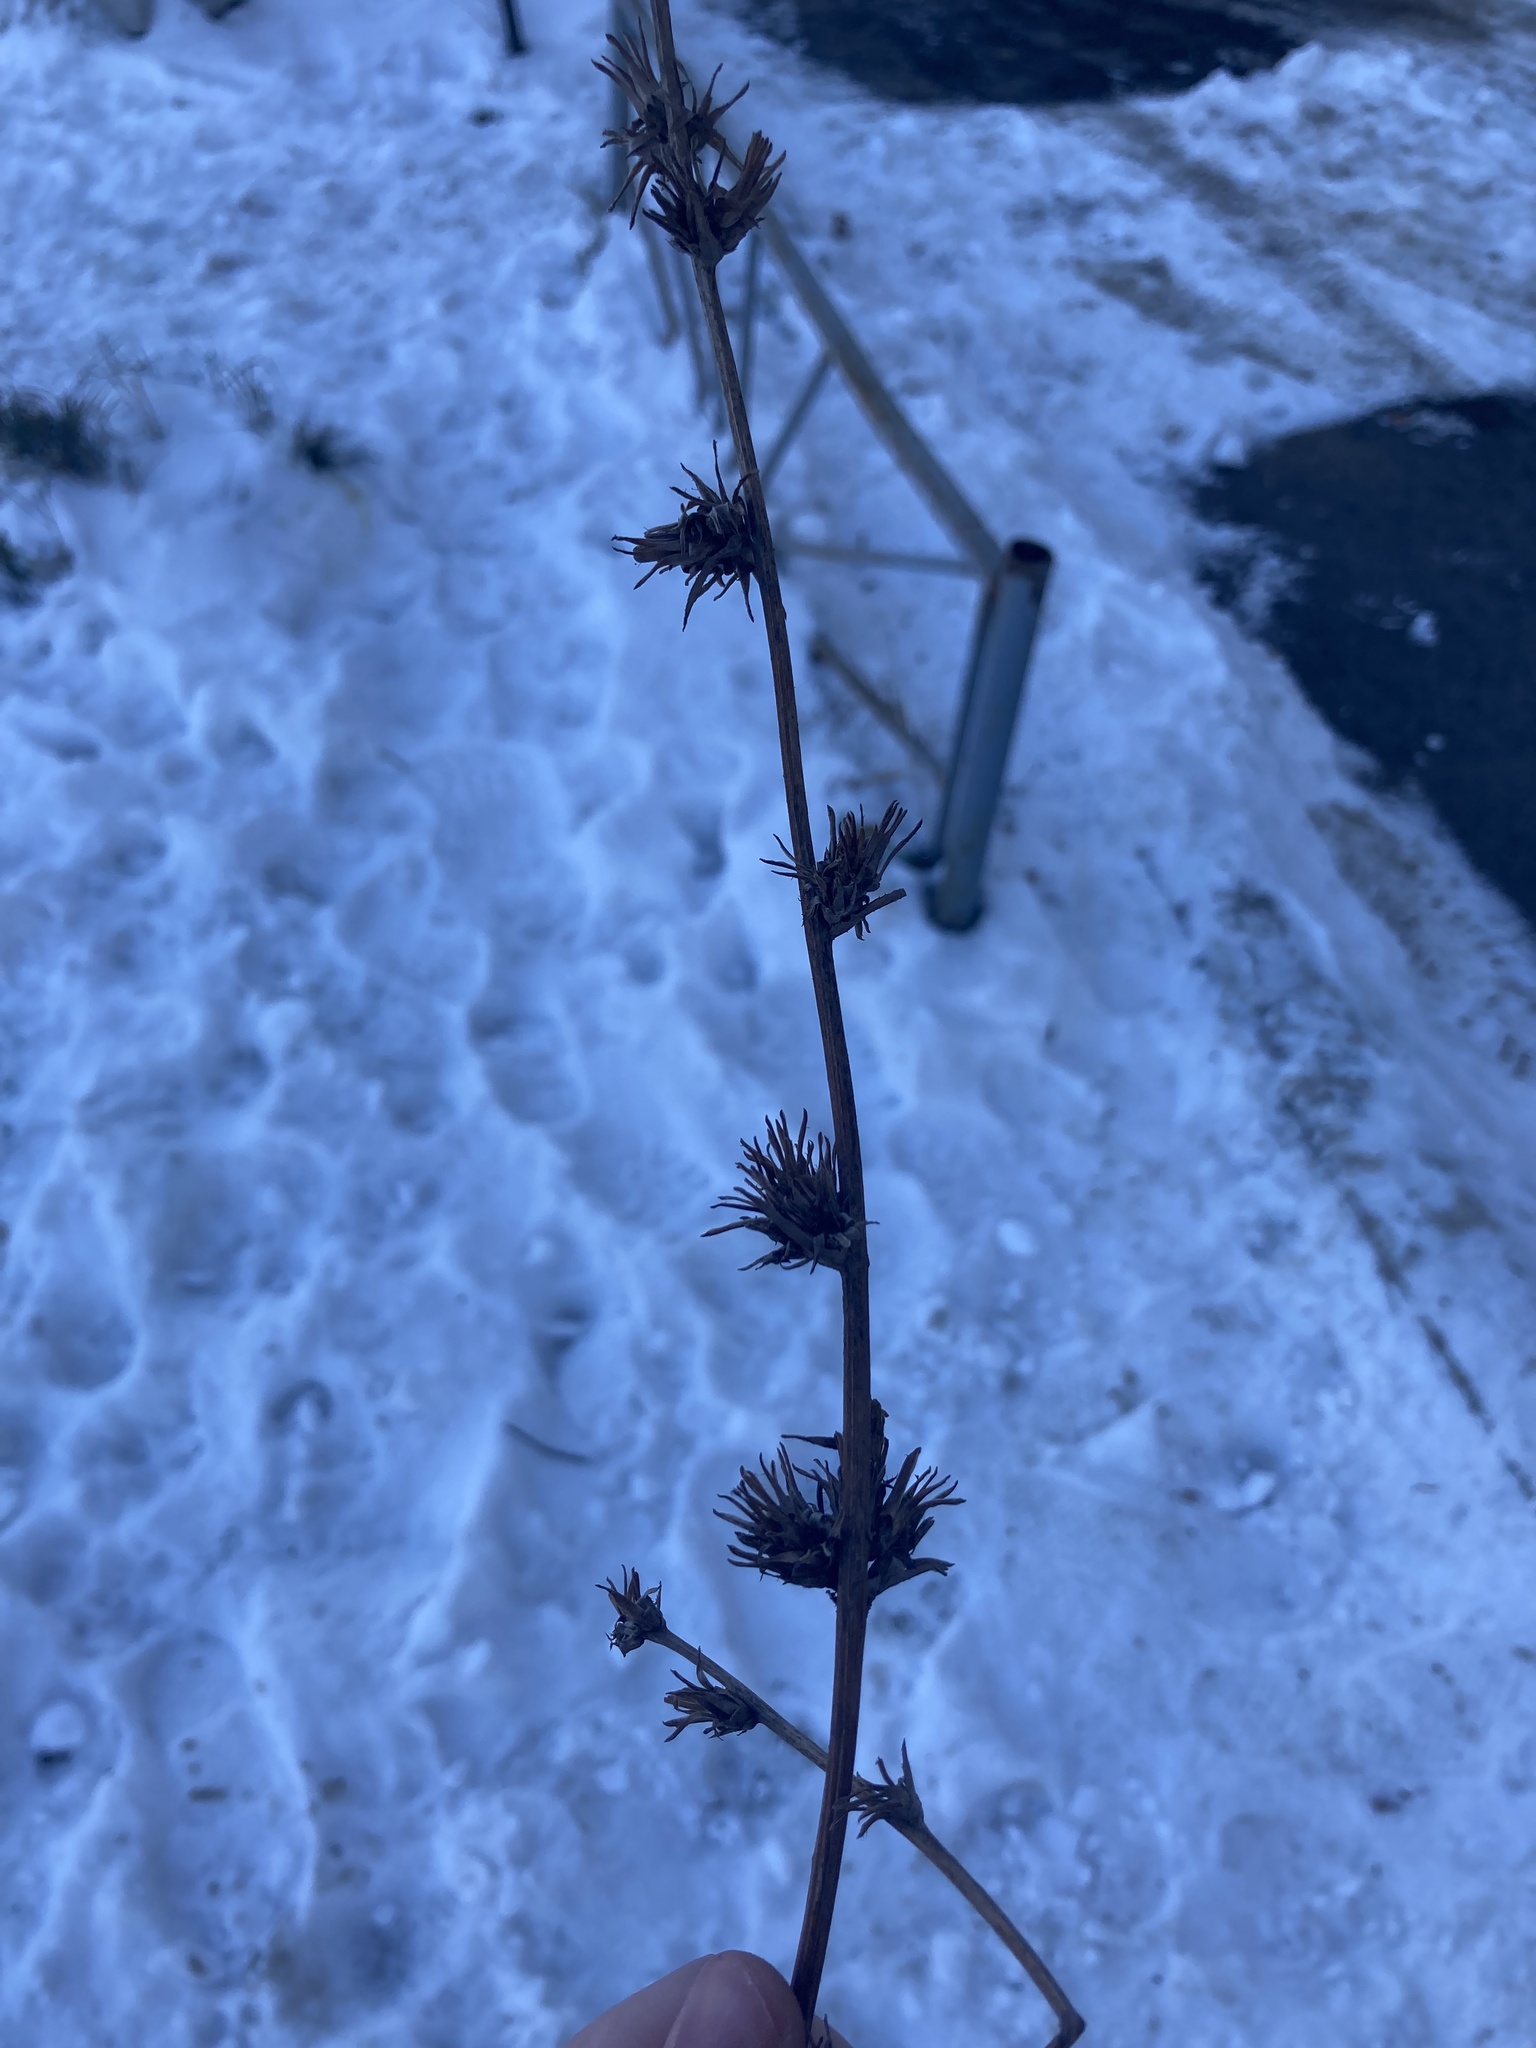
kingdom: Plantae
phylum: Tracheophyta
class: Magnoliopsida
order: Asterales
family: Asteraceae
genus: Cichorium
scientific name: Cichorium intybus
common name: Chicory
